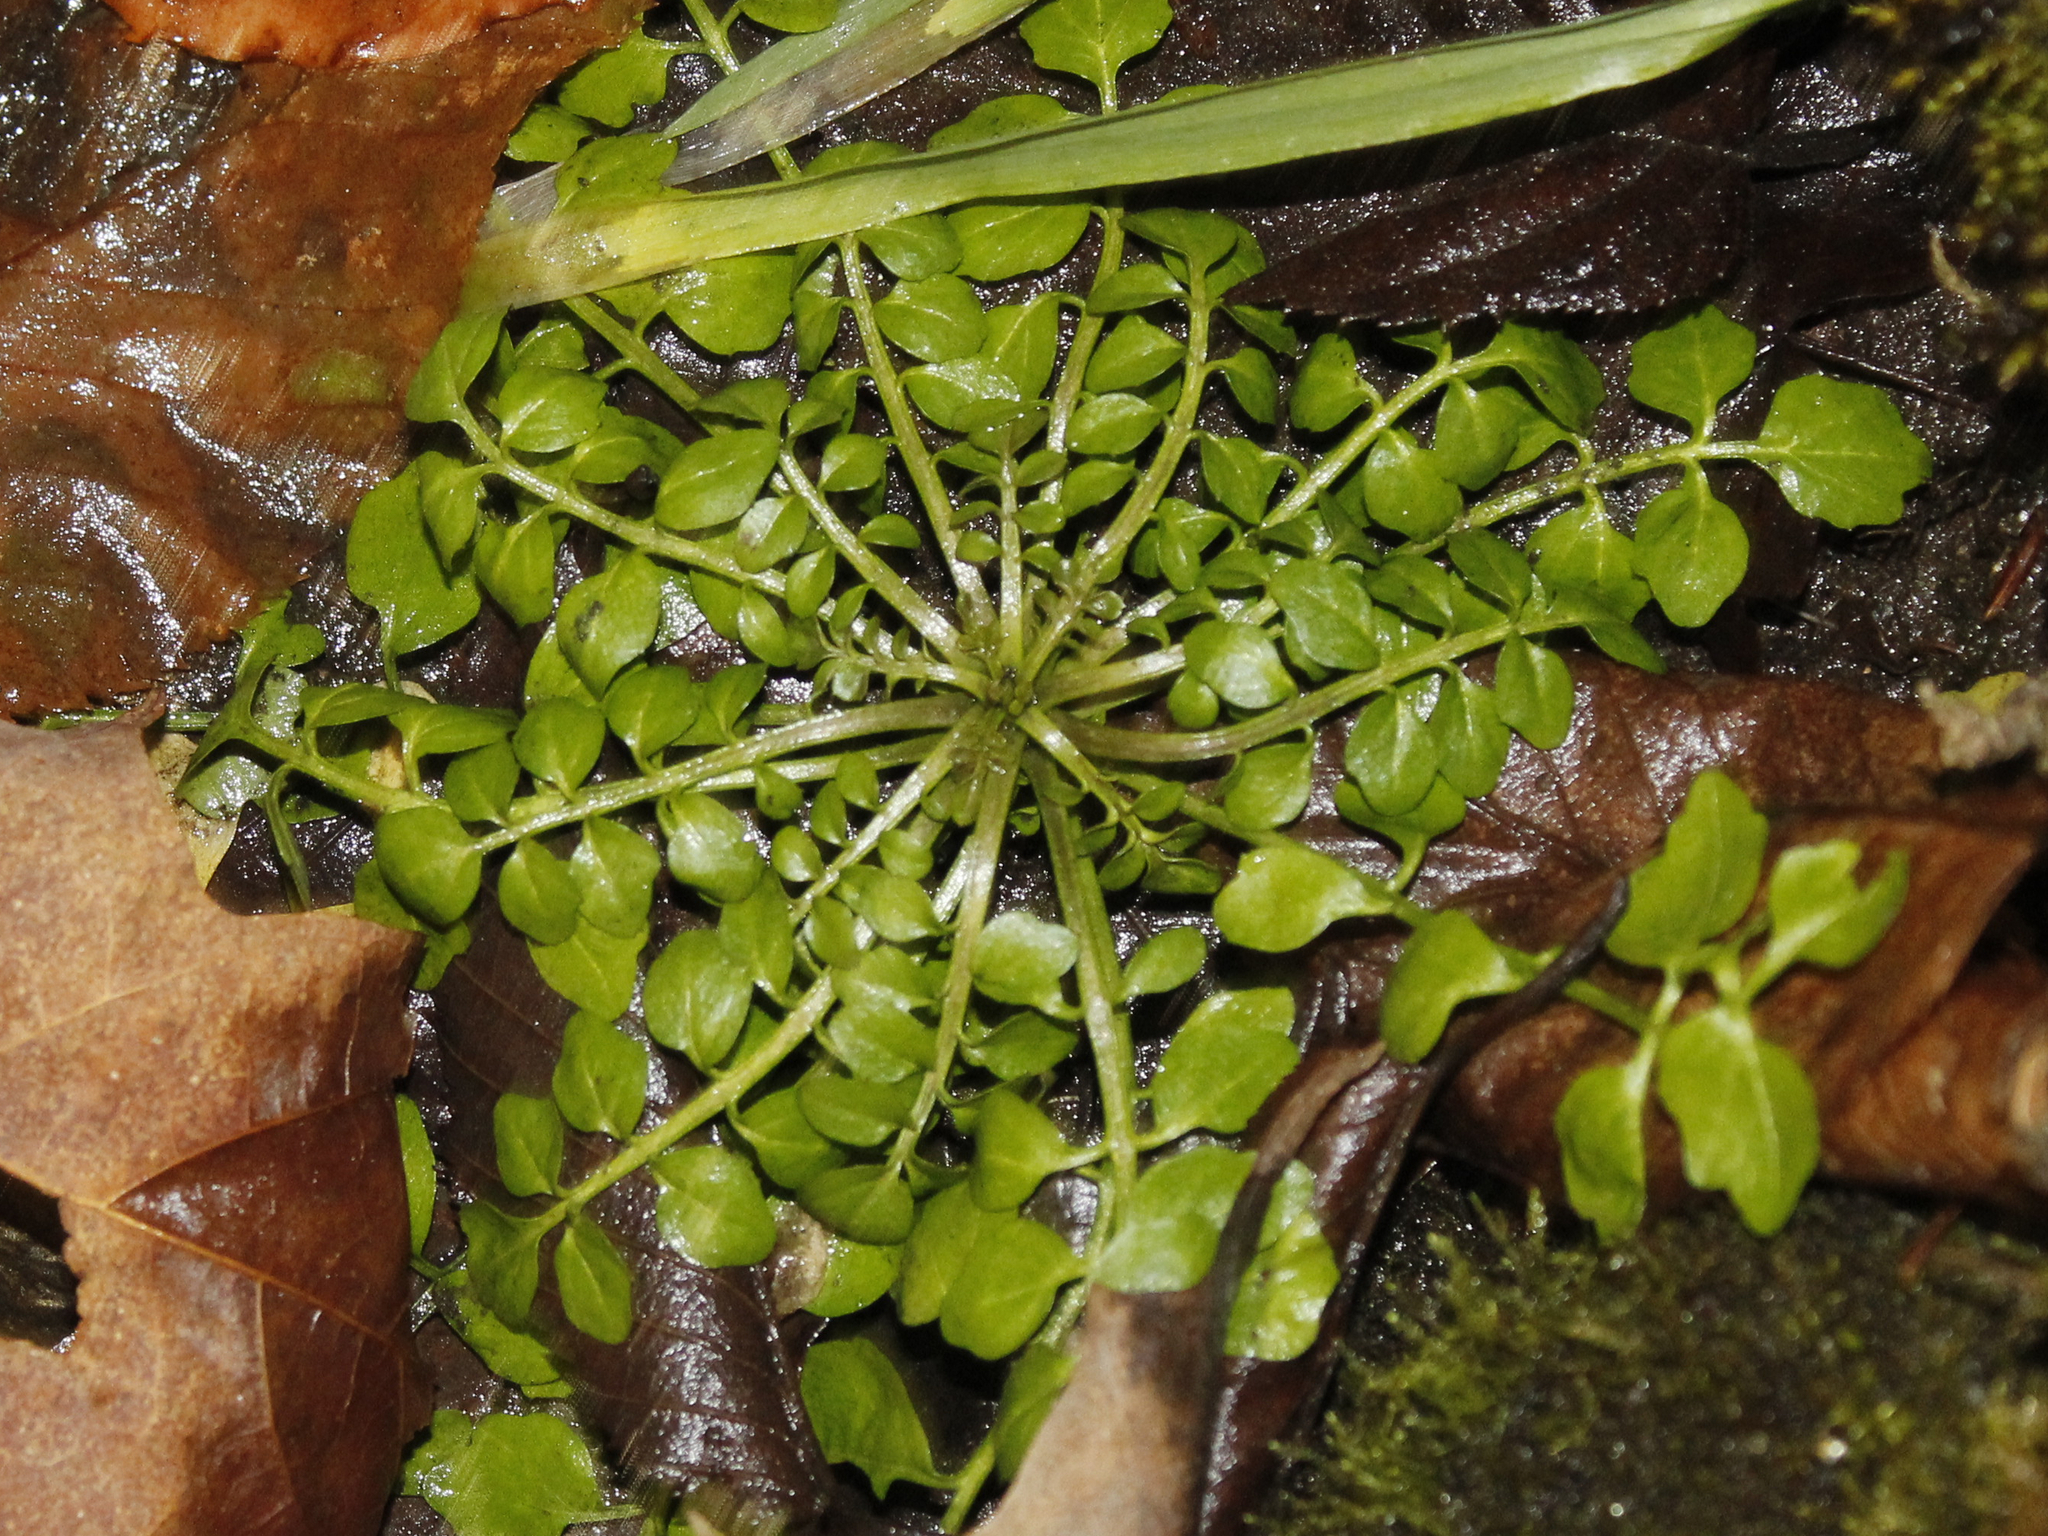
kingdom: Plantae
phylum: Tracheophyta
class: Magnoliopsida
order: Brassicales
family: Brassicaceae
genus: Cardamine
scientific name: Cardamine pensylvanica
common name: Pennsylvania bittercress
